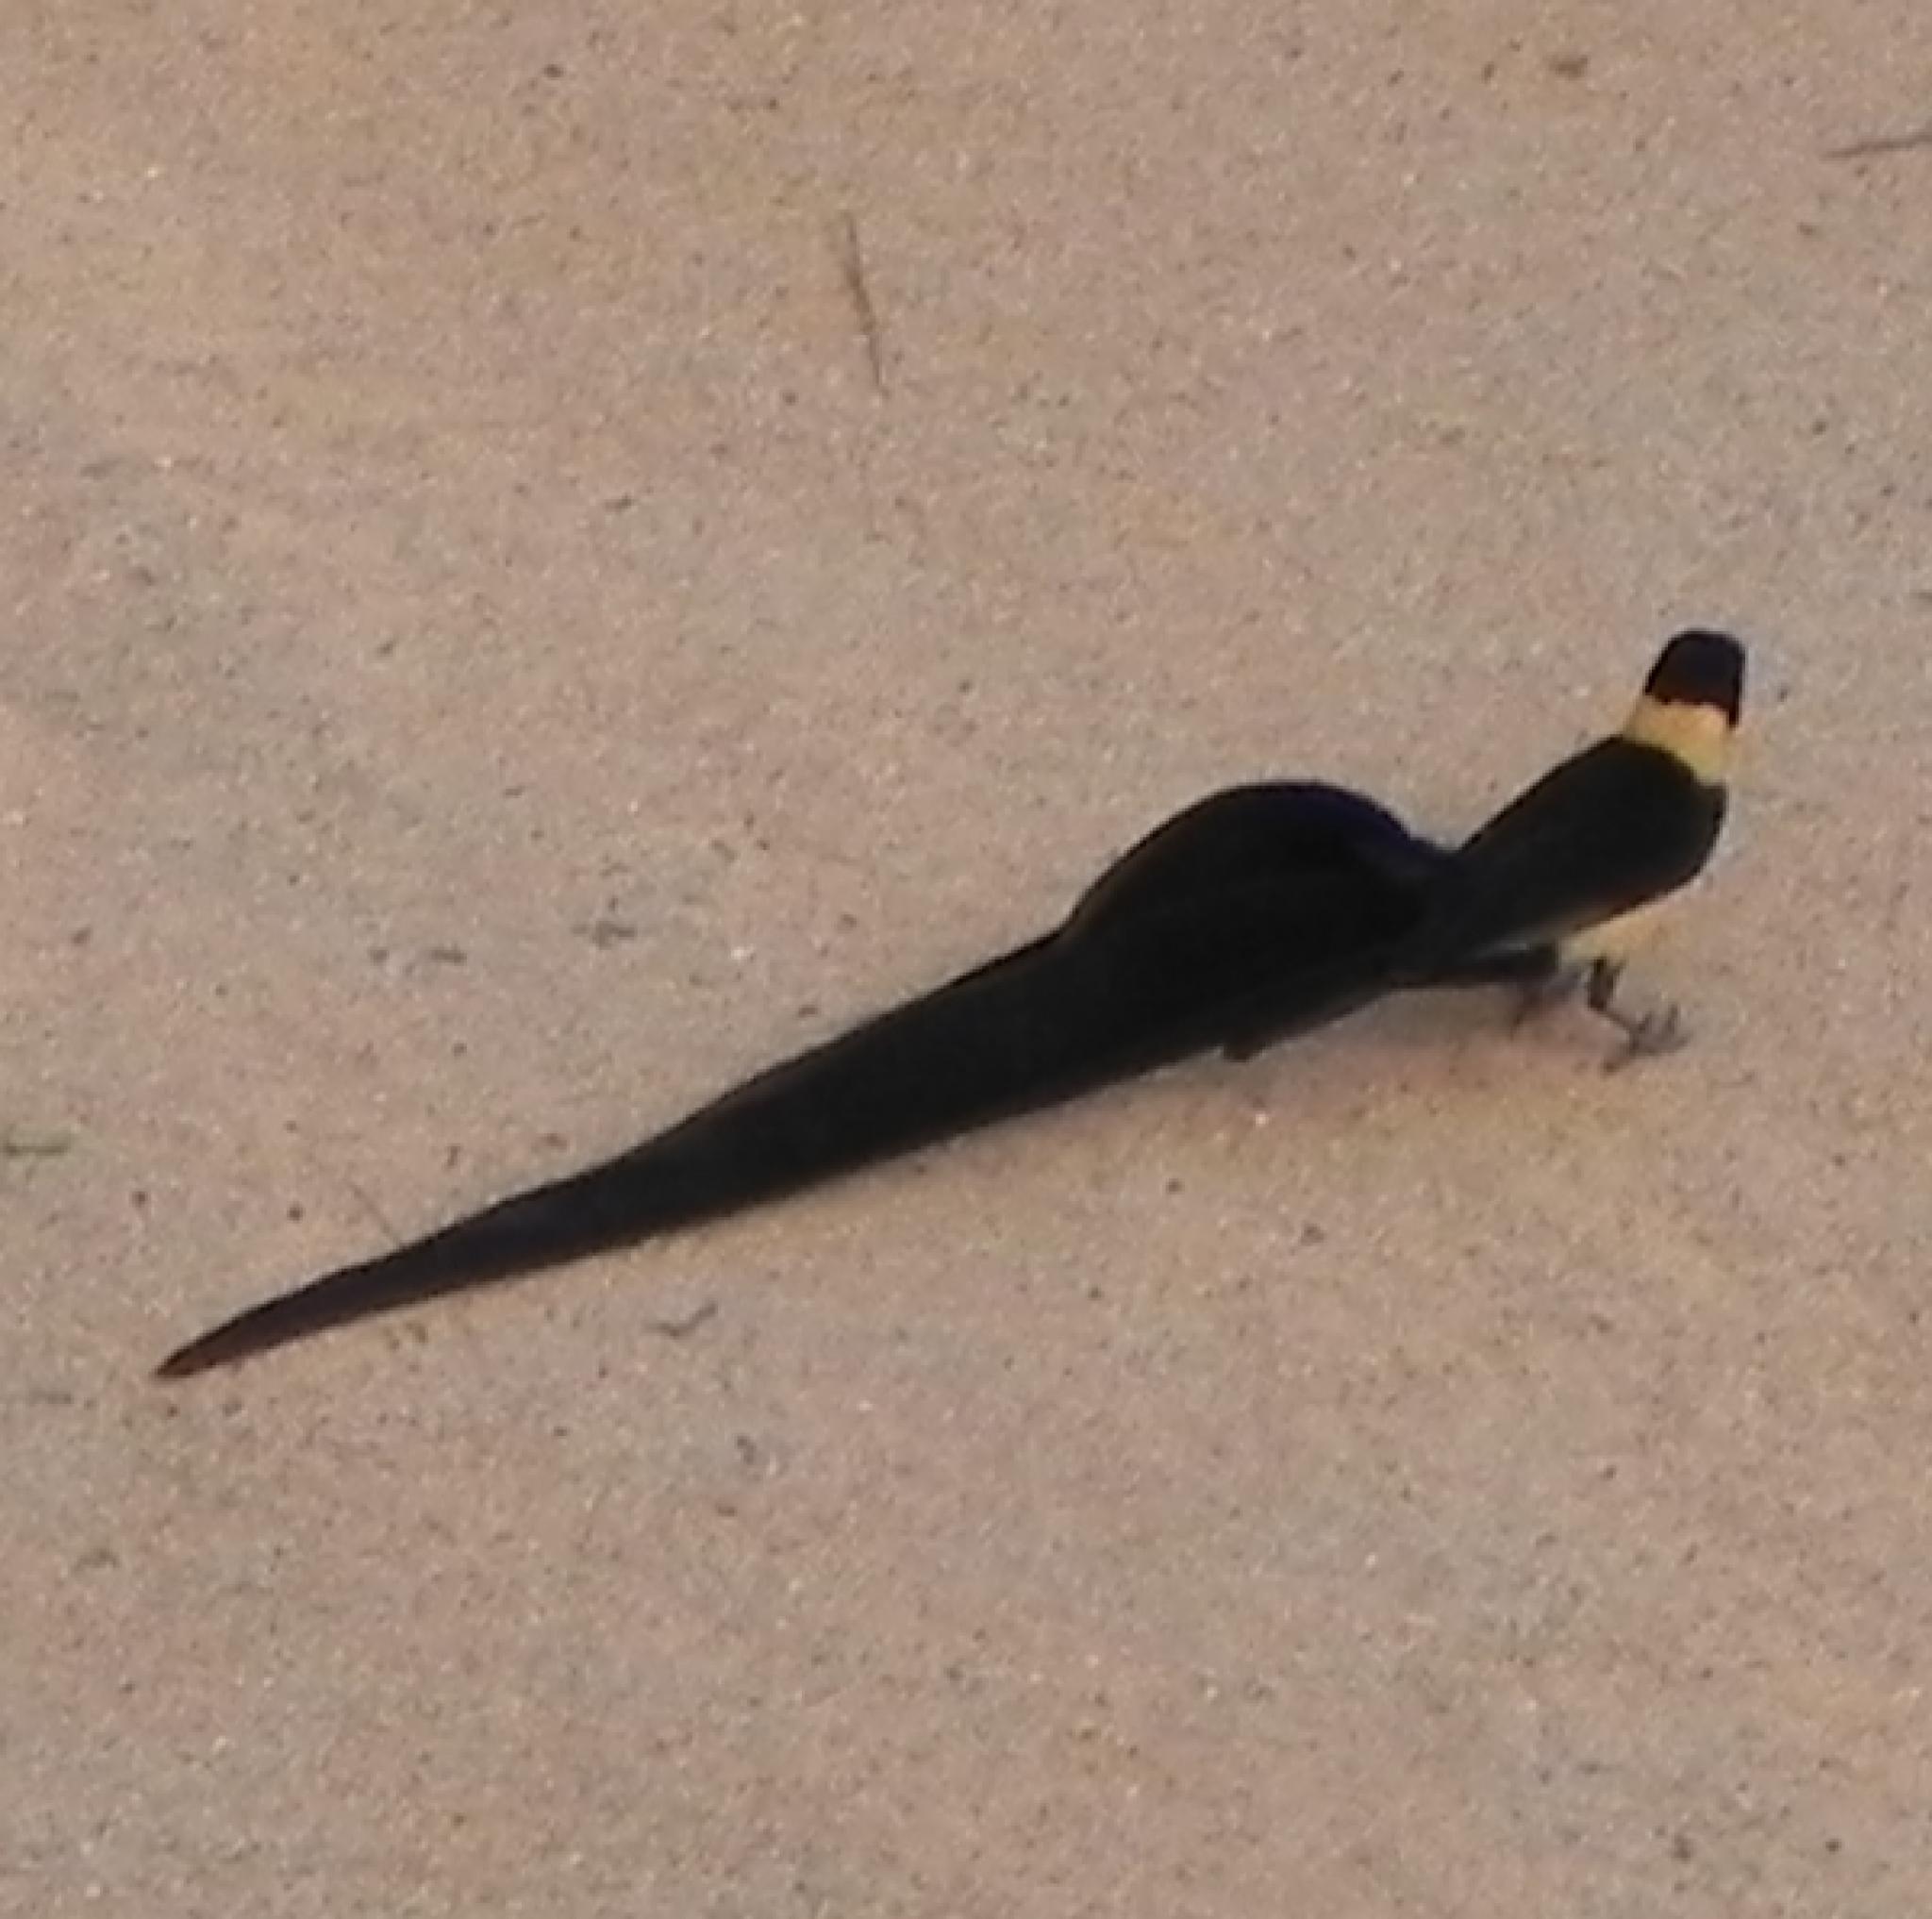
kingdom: Animalia
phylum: Chordata
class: Aves
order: Passeriformes
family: Viduidae
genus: Vidua
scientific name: Vidua paradisaea
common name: Long-tailed paradise whydah
